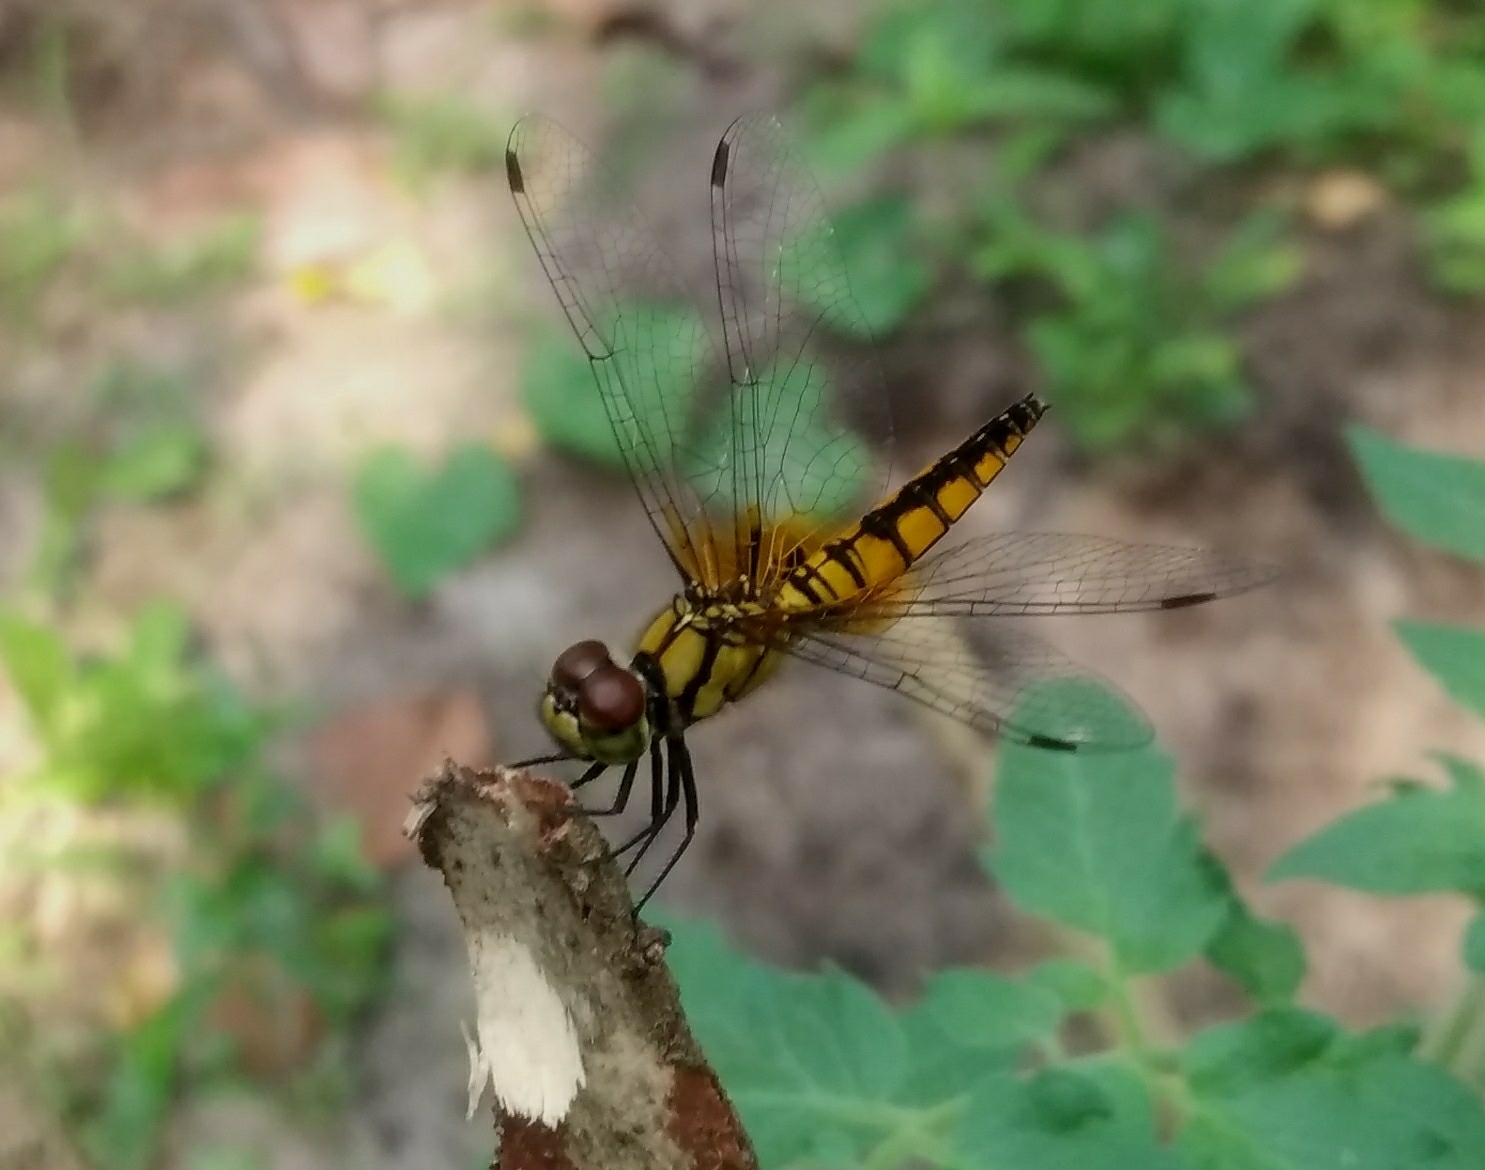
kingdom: Animalia
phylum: Arthropoda
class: Insecta
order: Odonata
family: Libellulidae
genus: Aethriamanta
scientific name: Aethriamanta brevipennis
